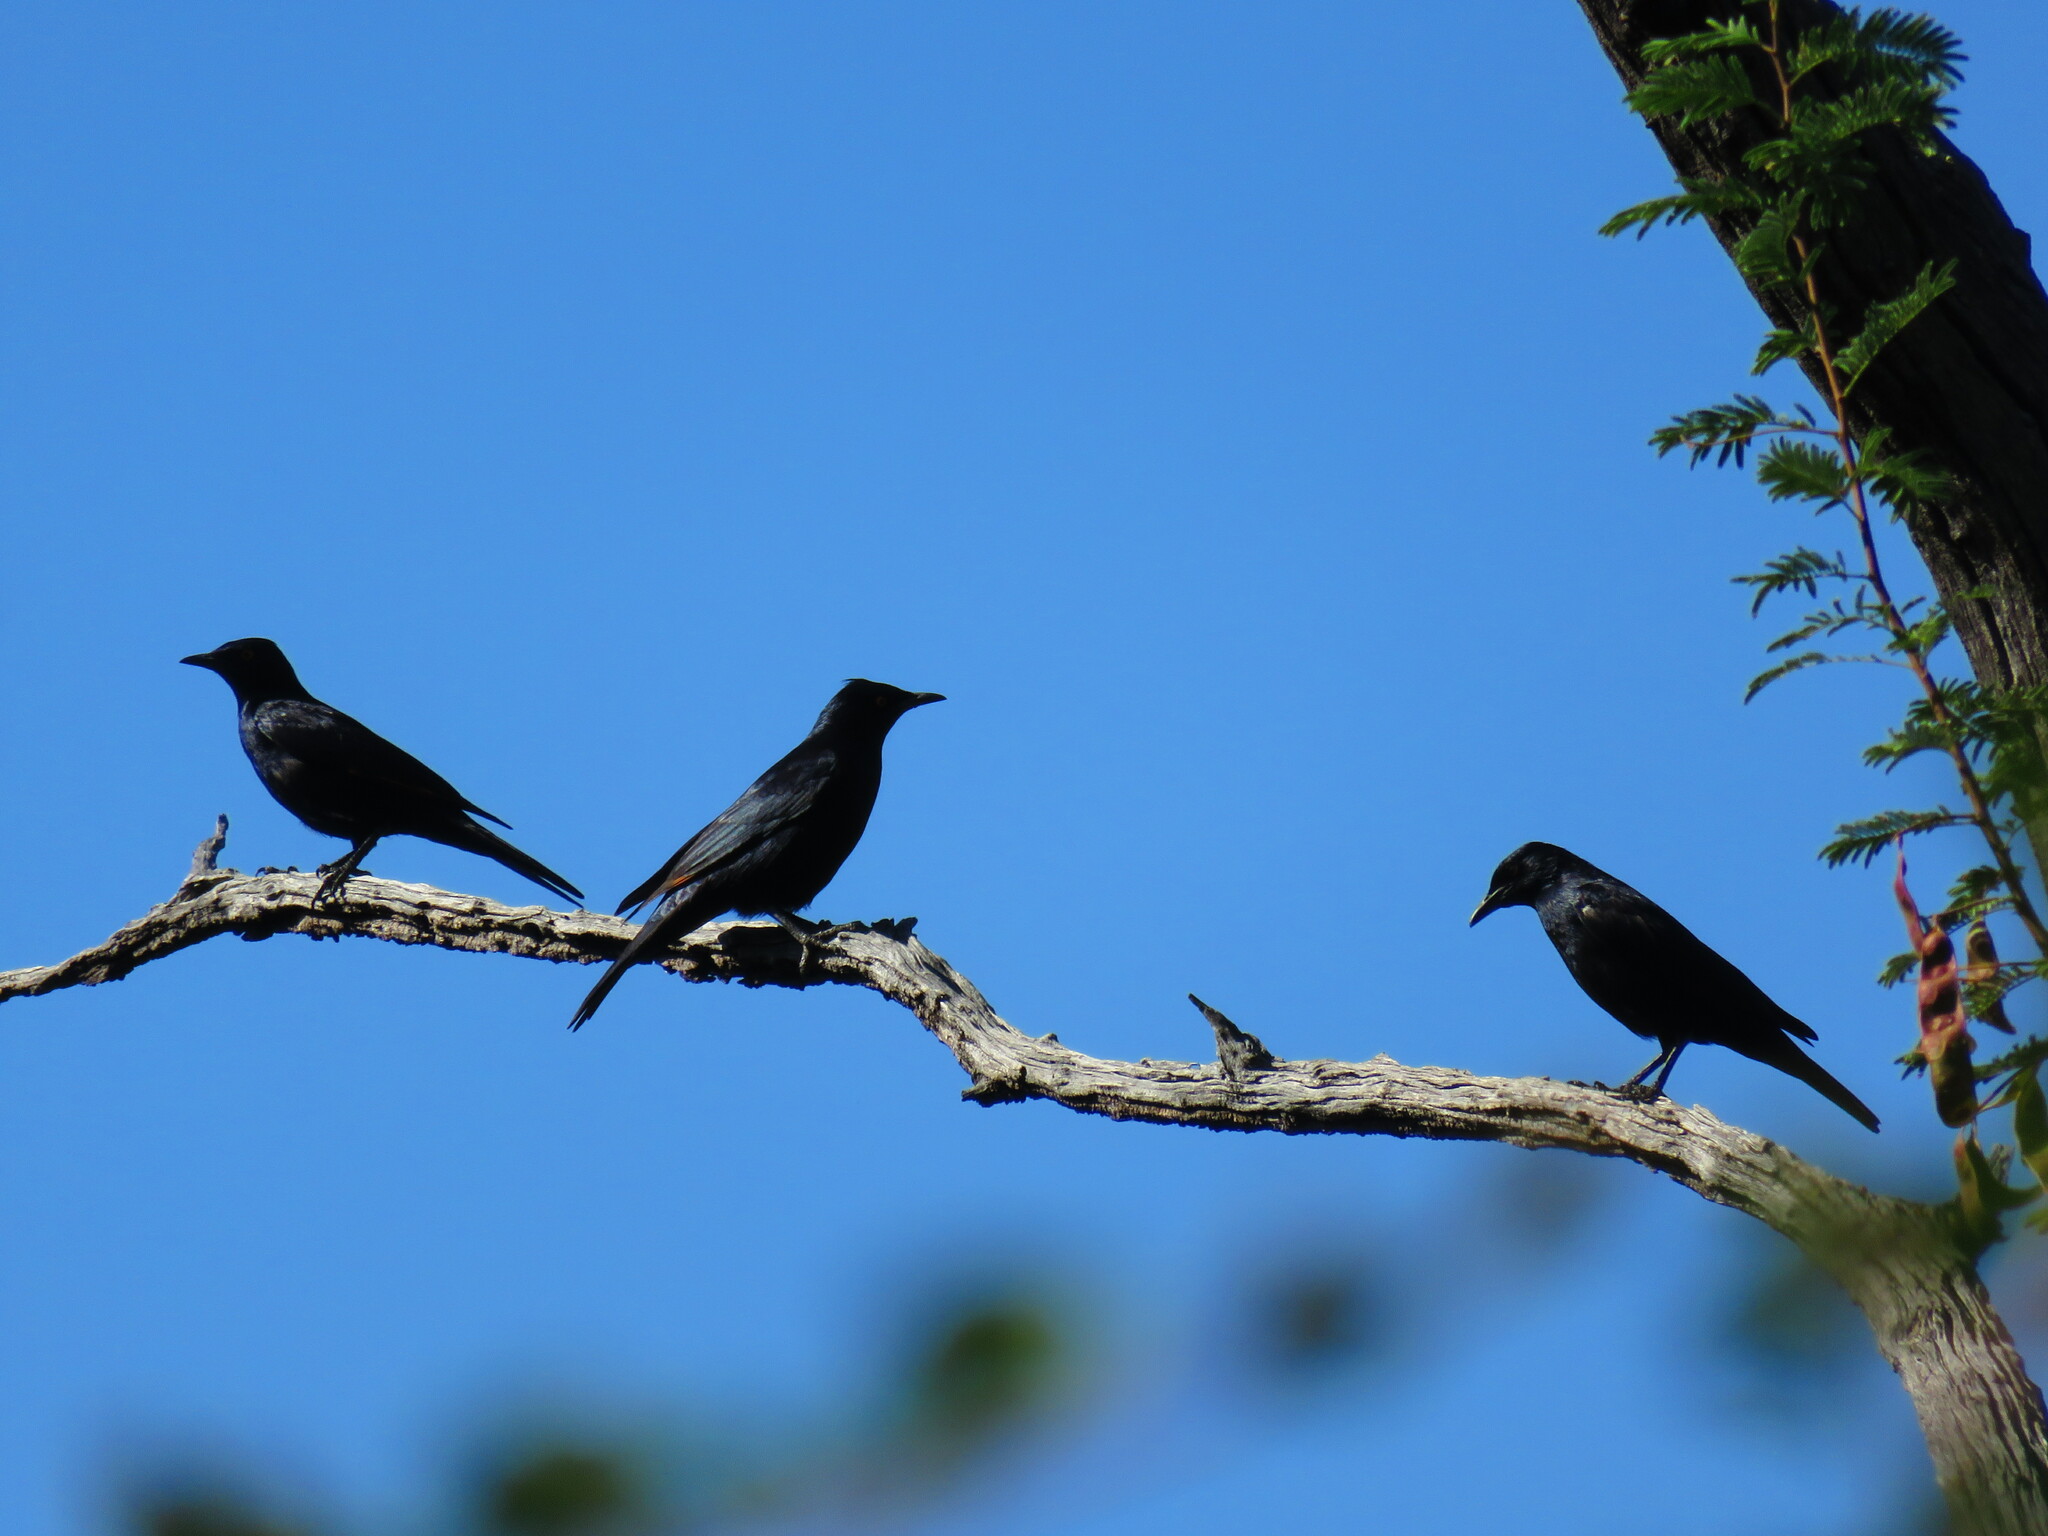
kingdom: Animalia
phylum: Chordata
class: Aves
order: Passeriformes
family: Sturnidae
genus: Onychognathus
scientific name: Onychognathus nabouroup
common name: Pale-winged starling
